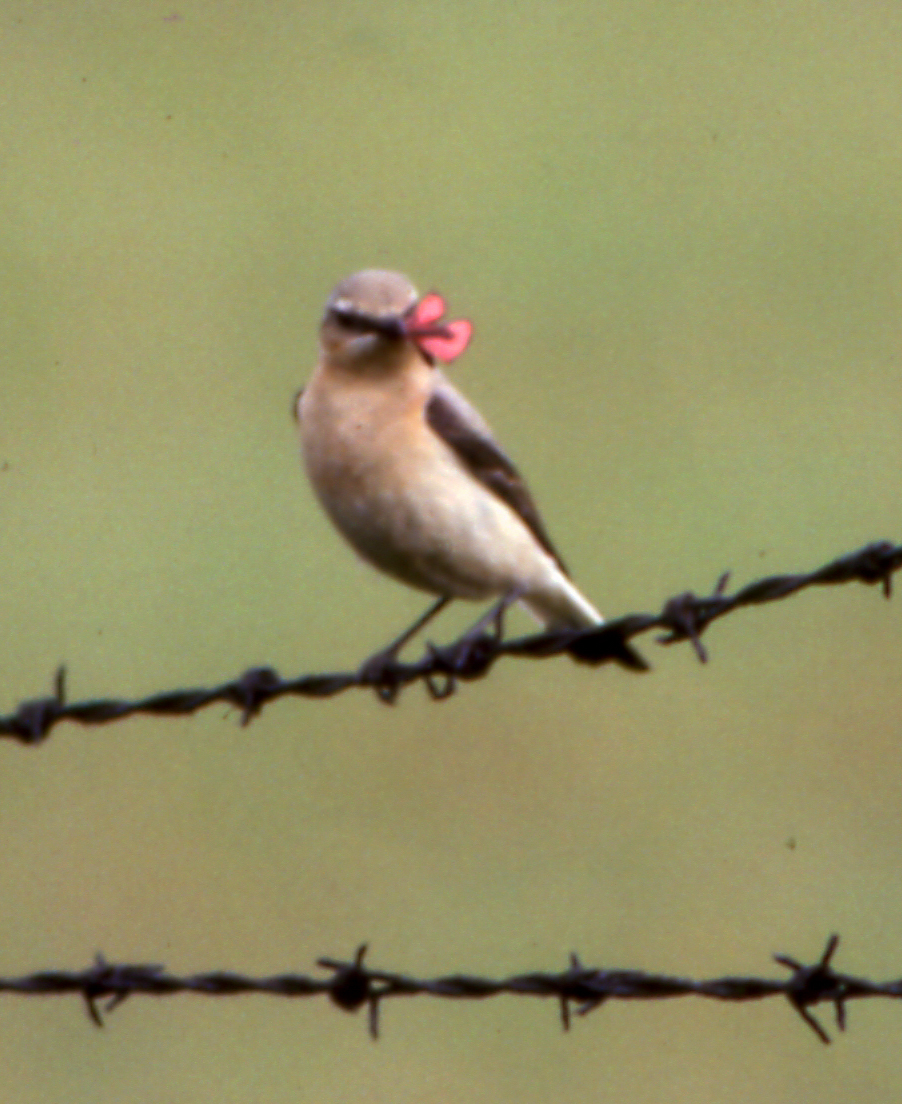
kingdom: Animalia
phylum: Chordata
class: Aves
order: Passeriformes
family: Muscicapidae
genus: Oenanthe
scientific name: Oenanthe oenanthe
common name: Northern wheatear
